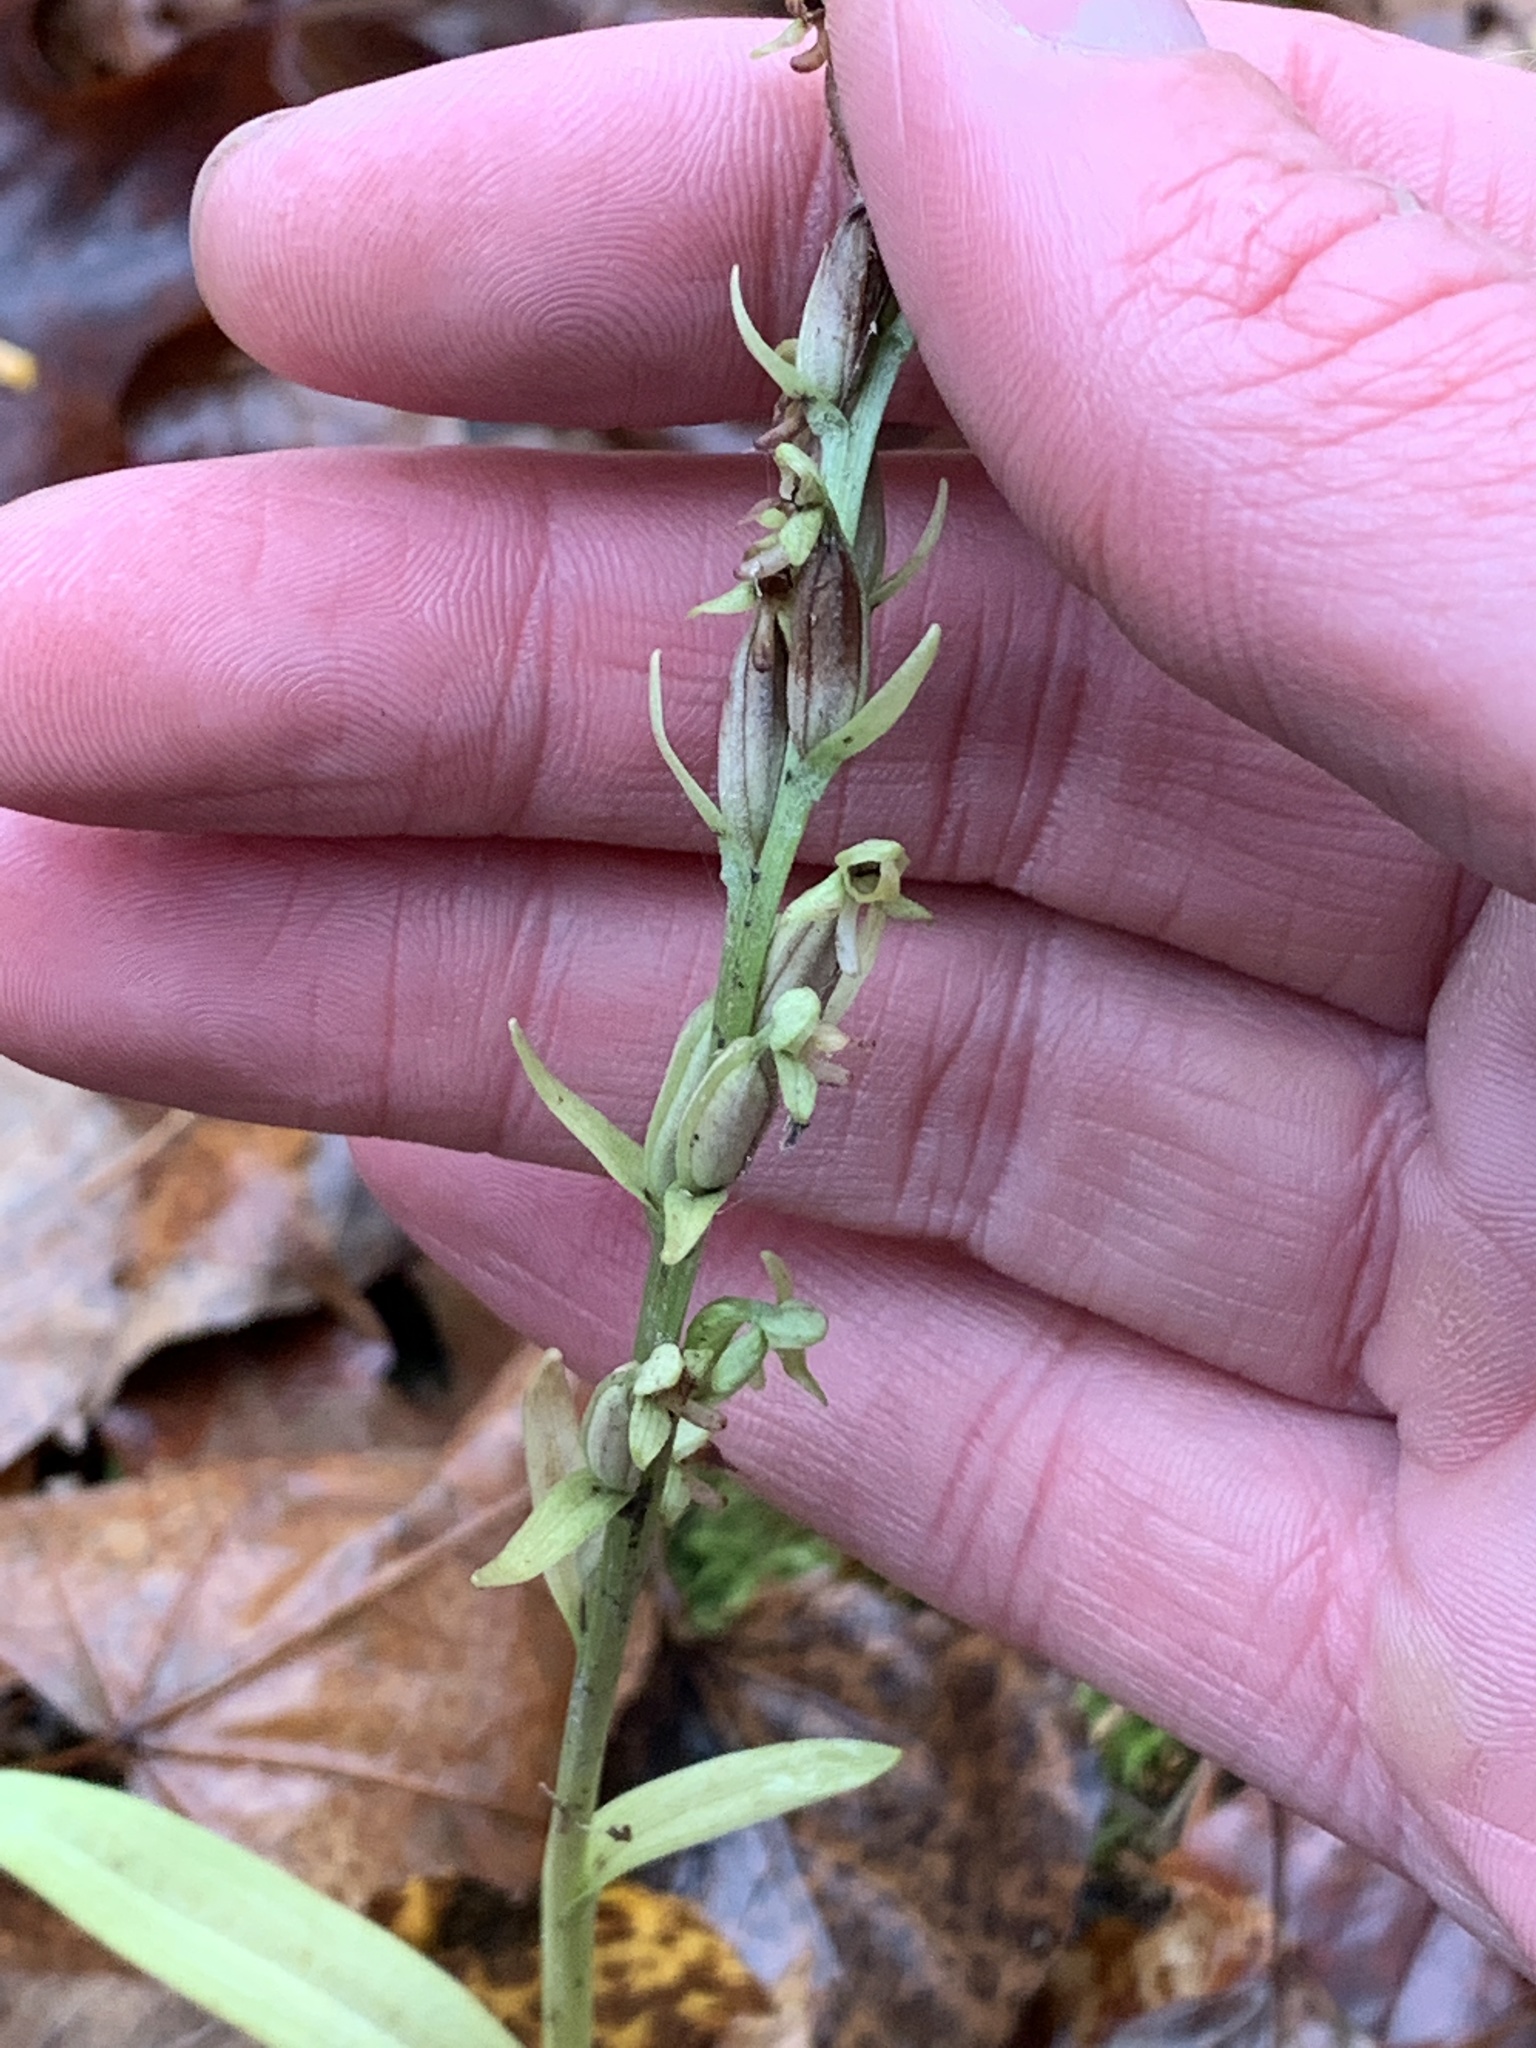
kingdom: Plantae
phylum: Tracheophyta
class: Liliopsida
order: Asparagales
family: Orchidaceae
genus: Platanthera
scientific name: Platanthera aquilonis
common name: Northern green orchid
